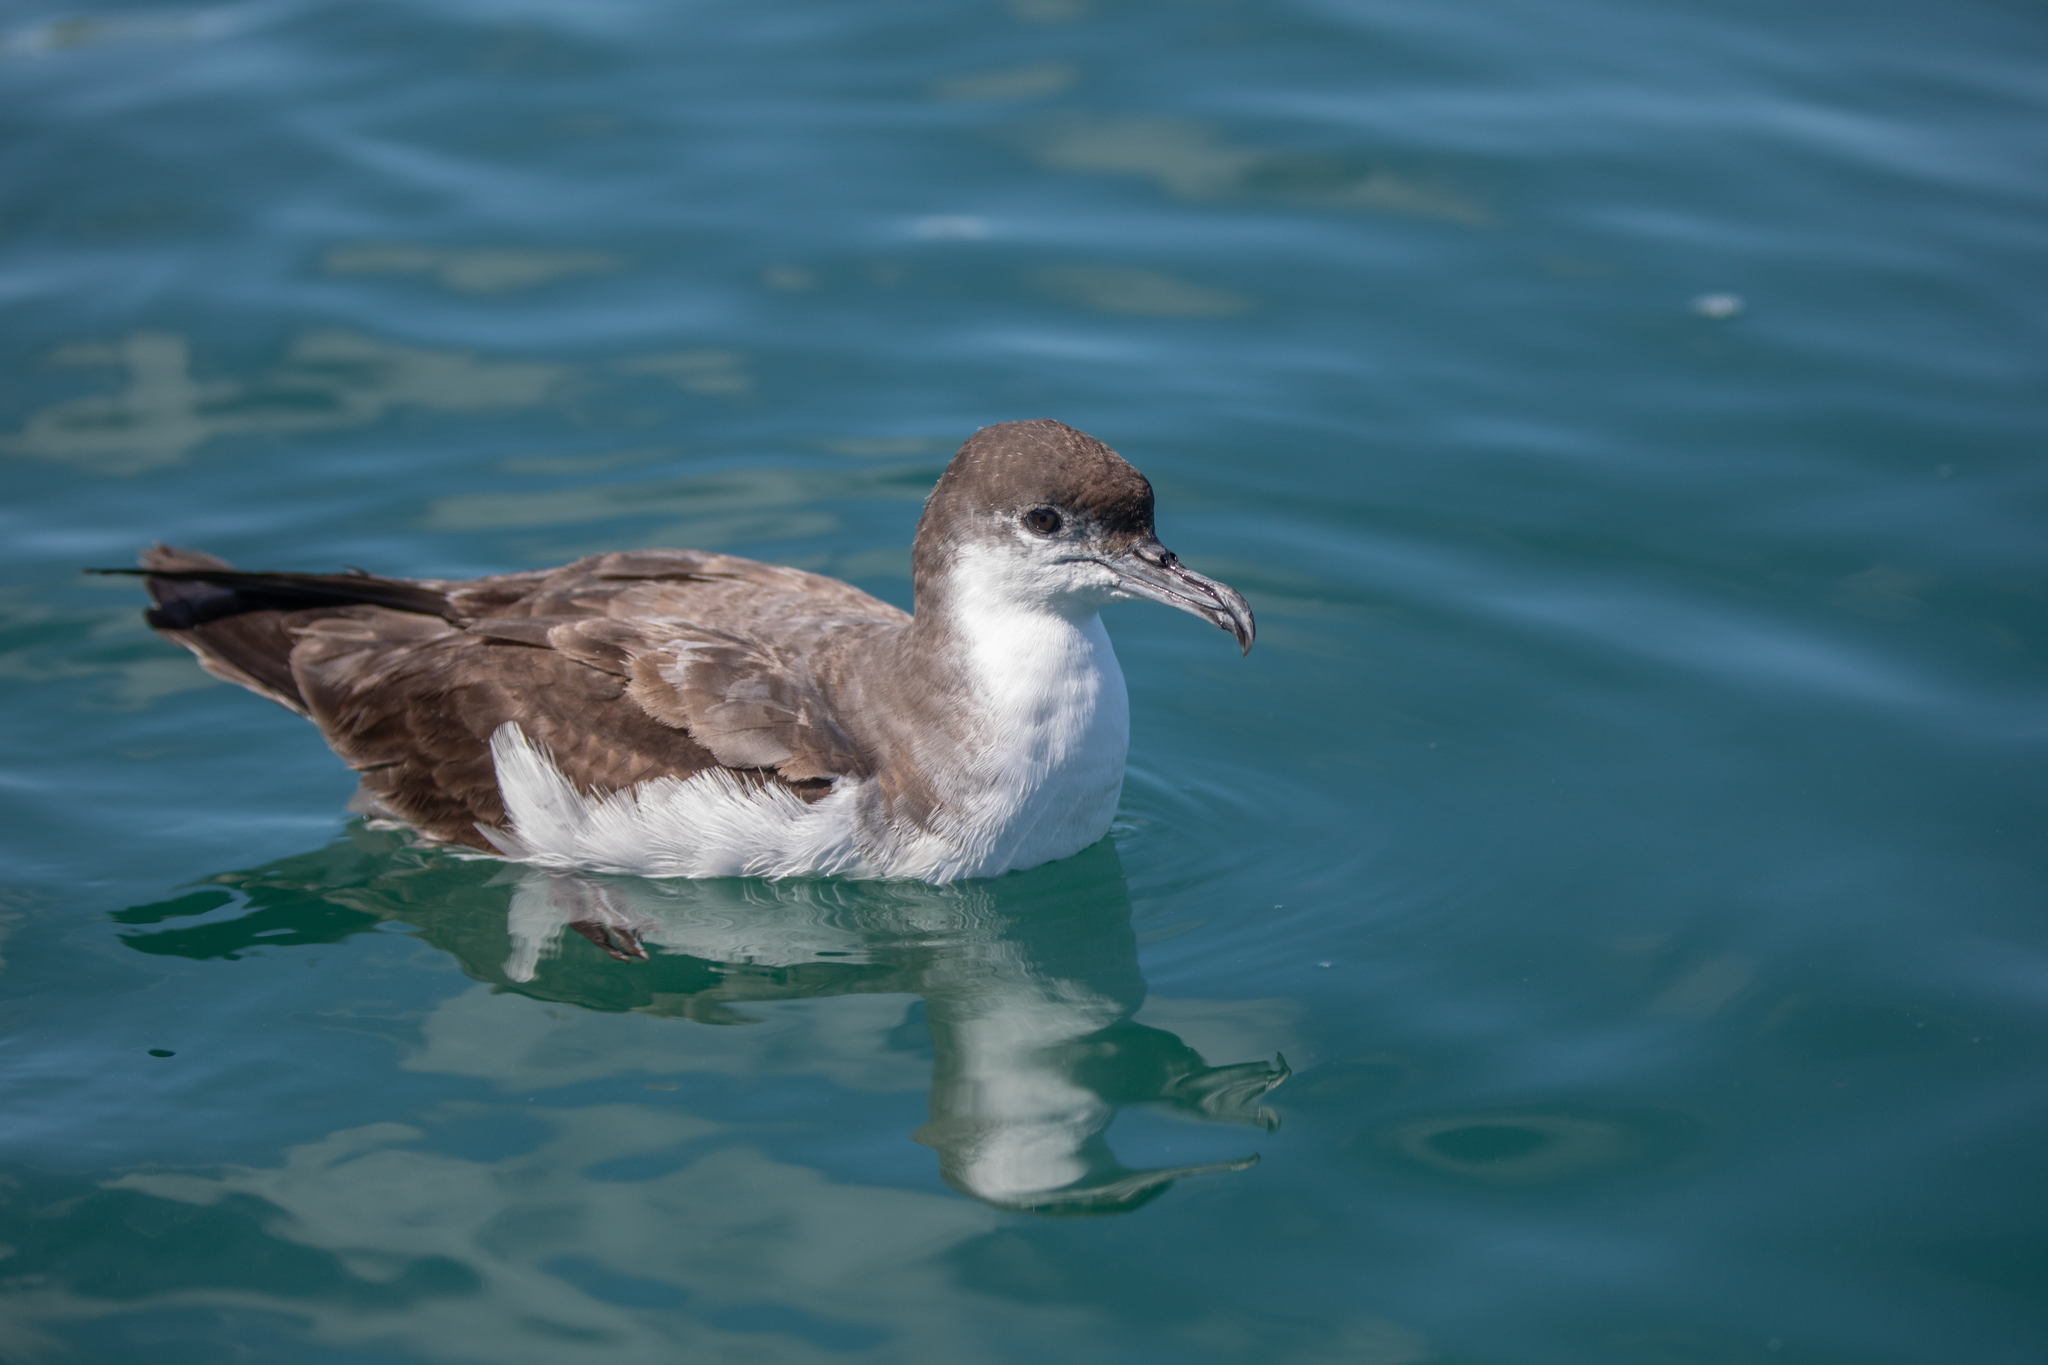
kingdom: Animalia
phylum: Chordata
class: Aves
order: Procellariiformes
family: Procellariidae
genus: Puffinus
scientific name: Puffinus bulleri
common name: Buller's shearwater
